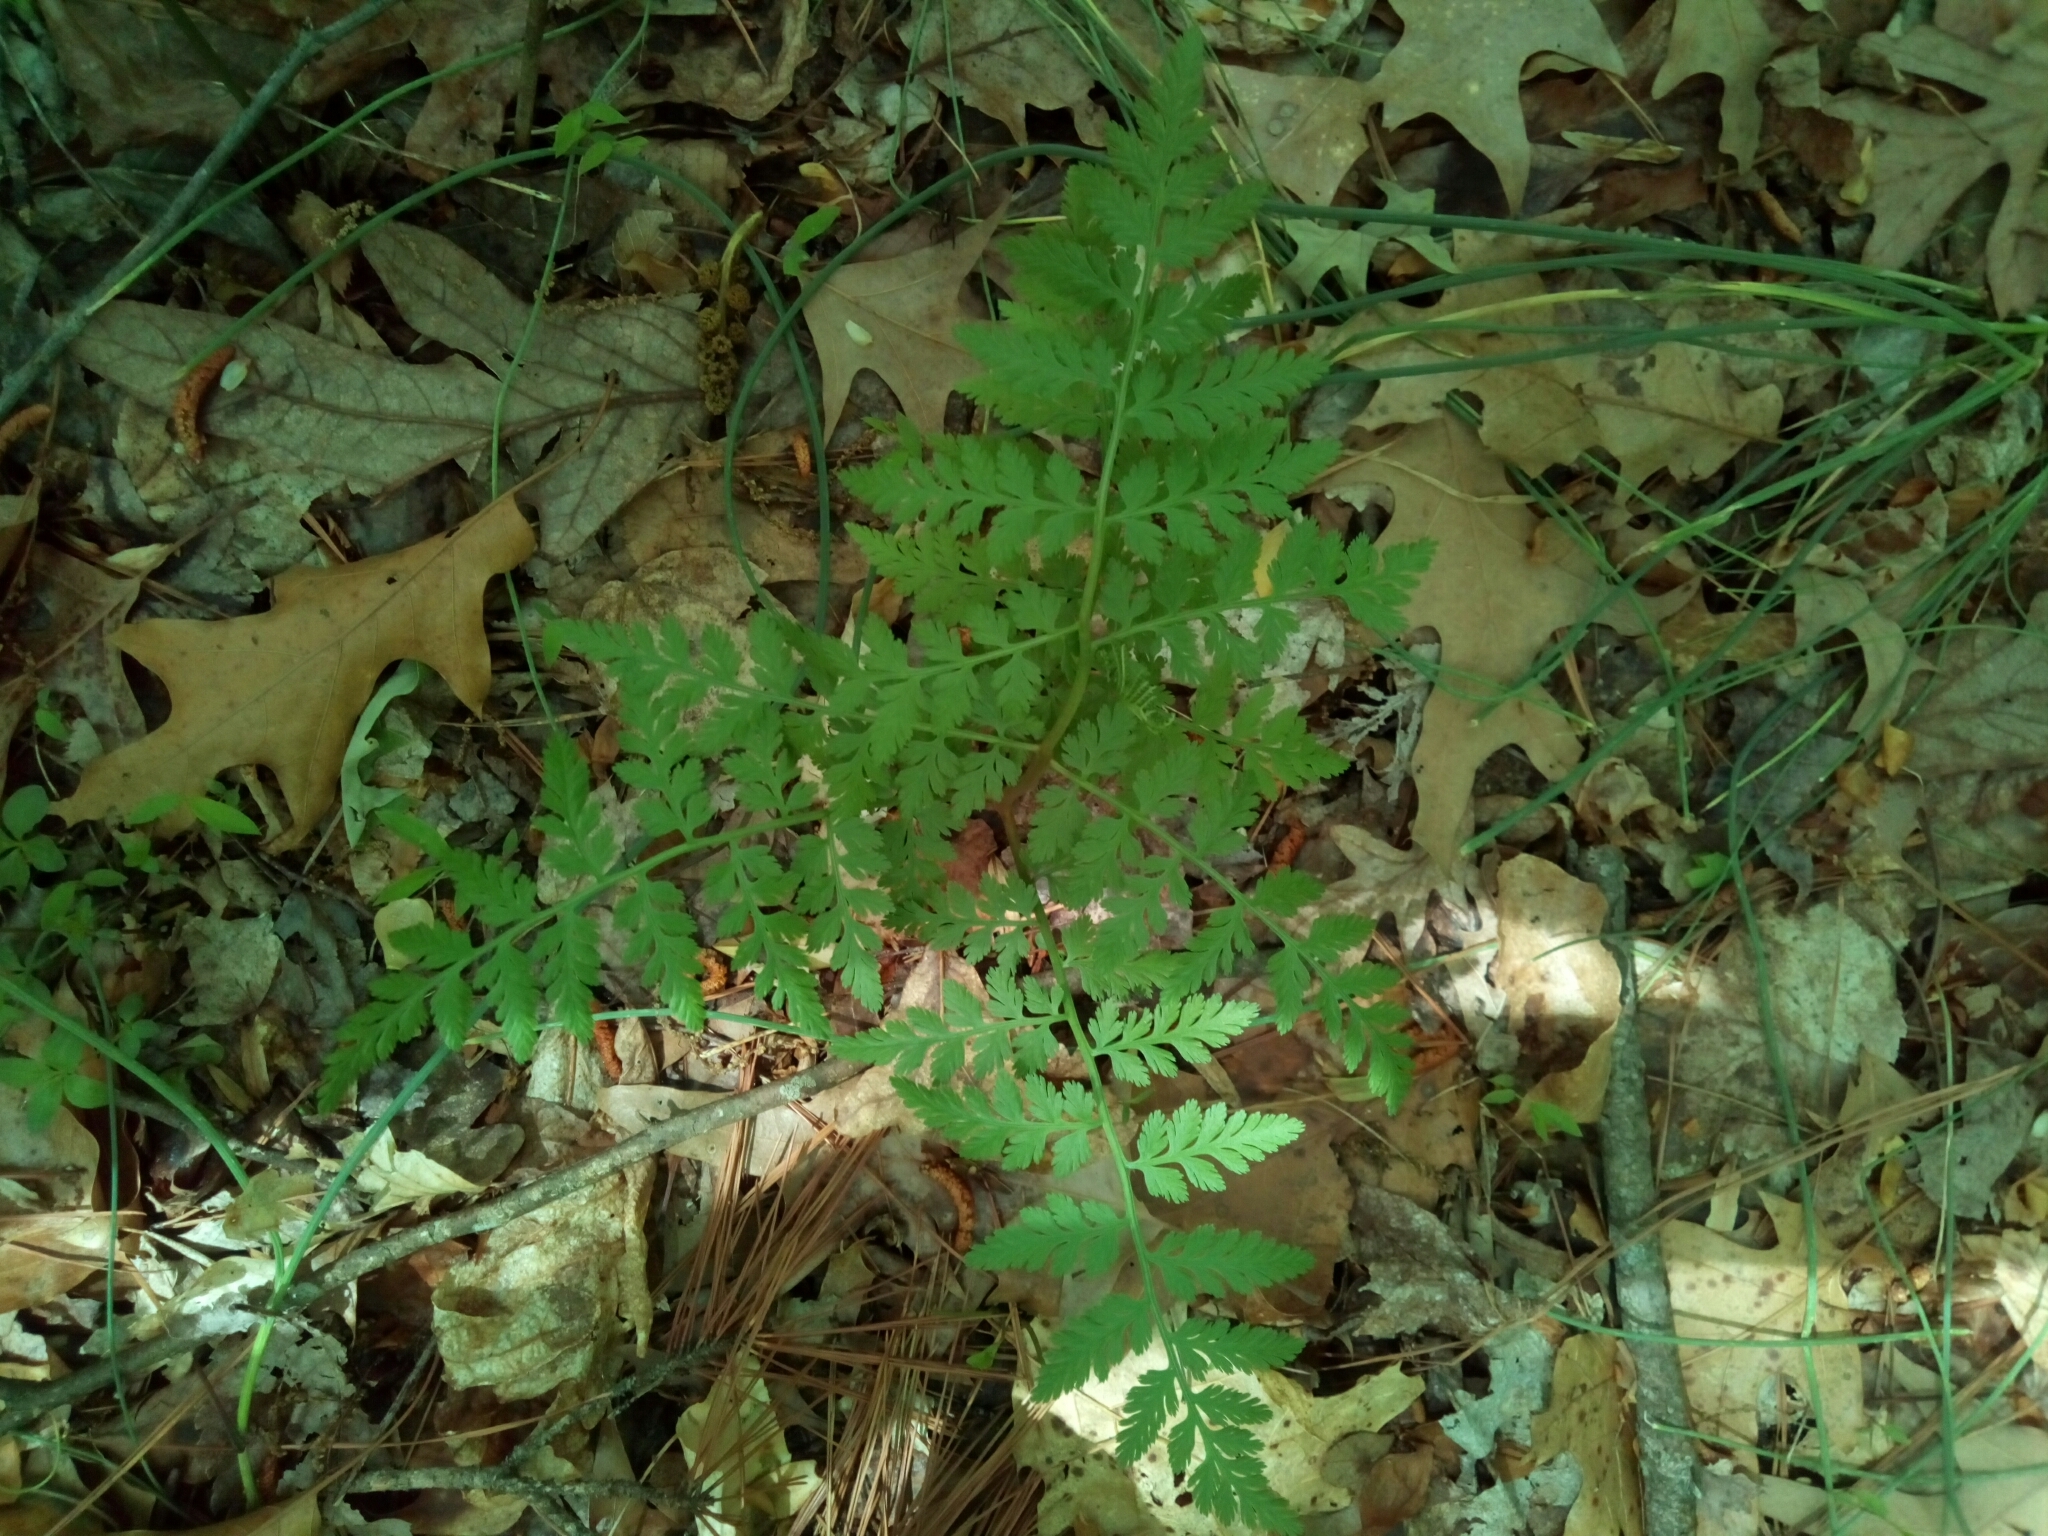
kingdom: Plantae
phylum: Tracheophyta
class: Polypodiopsida
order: Ophioglossales
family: Ophioglossaceae
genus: Botrypus
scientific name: Botrypus virginianus
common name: Common grapefern
